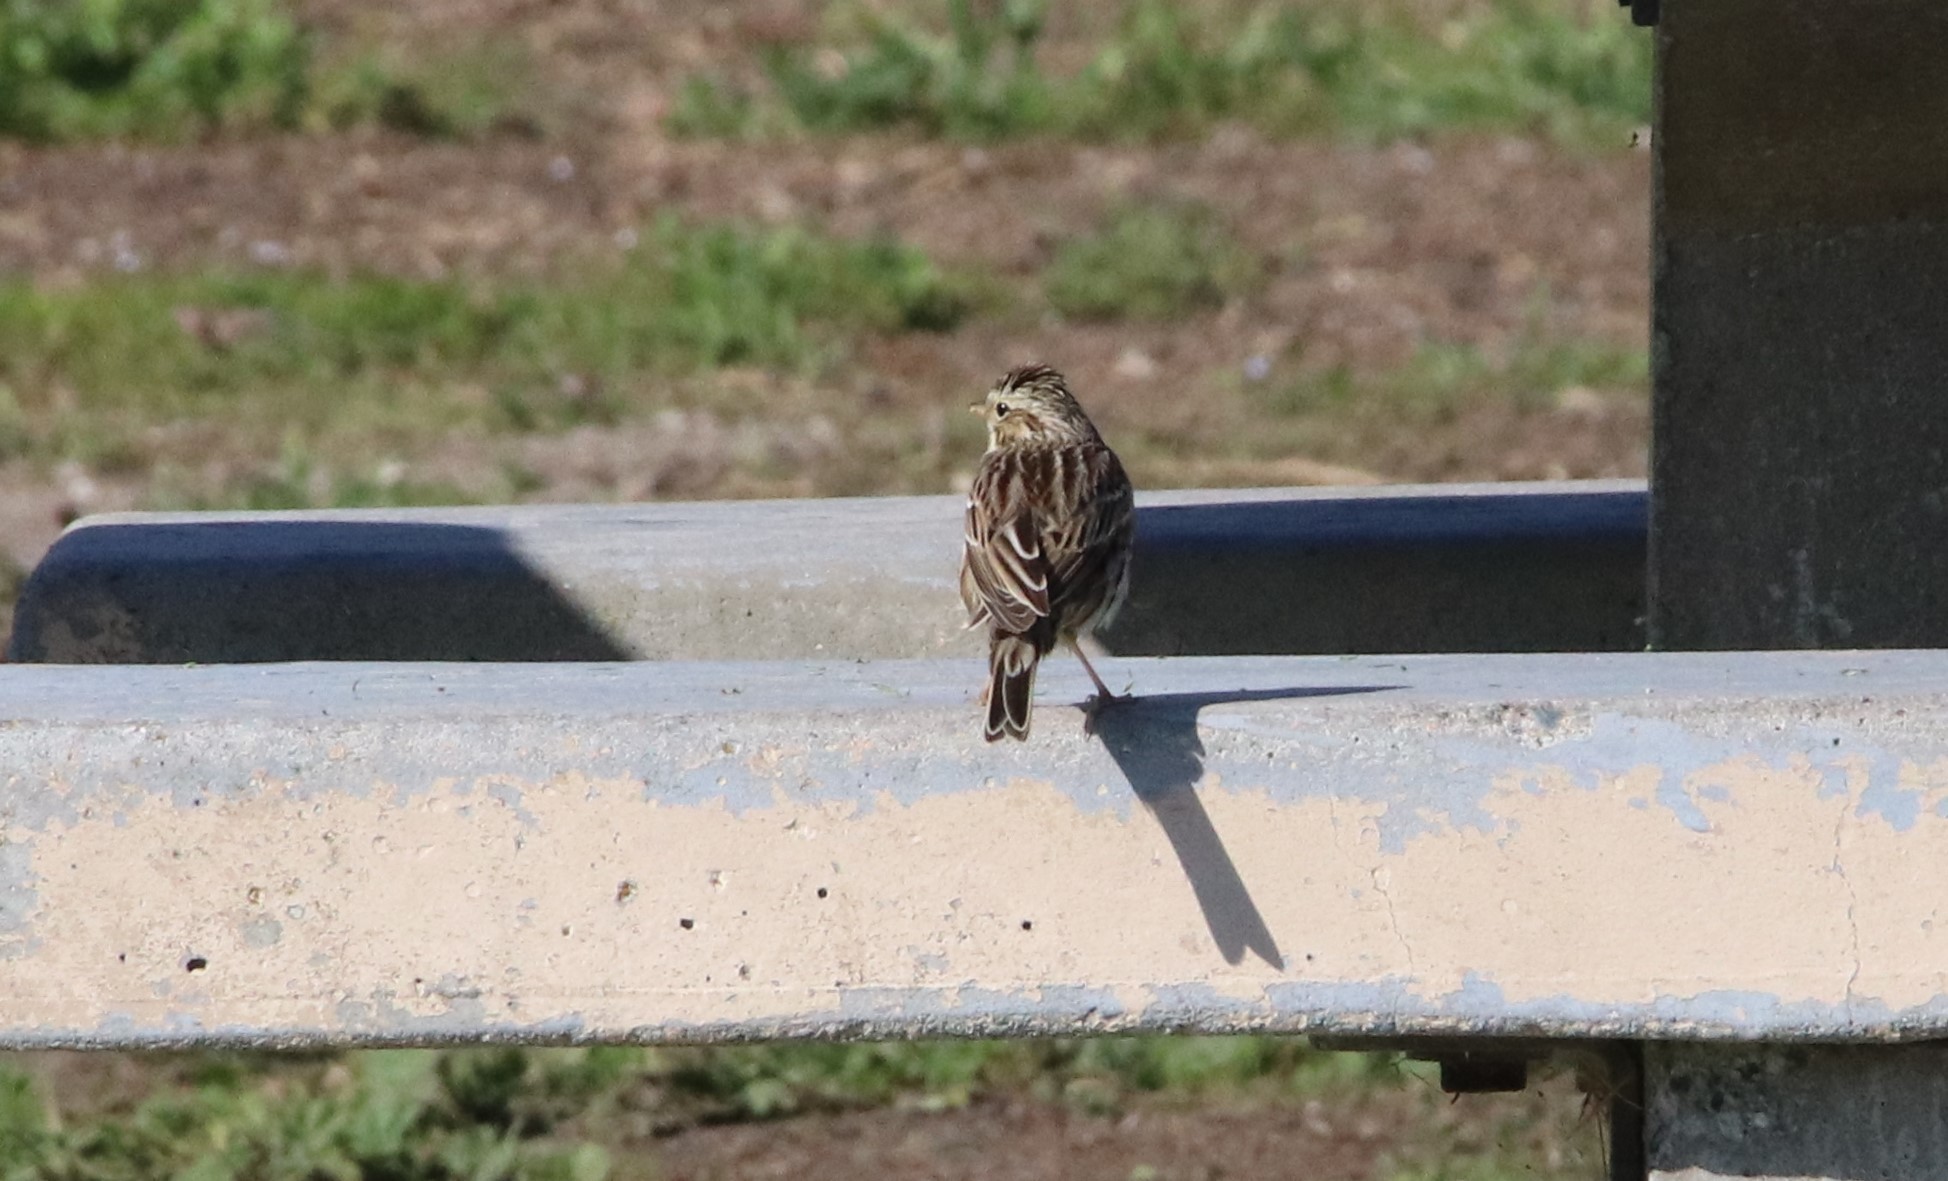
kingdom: Animalia
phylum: Chordata
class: Aves
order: Passeriformes
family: Passerellidae
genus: Passerculus
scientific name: Passerculus sandwichensis
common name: Savannah sparrow
